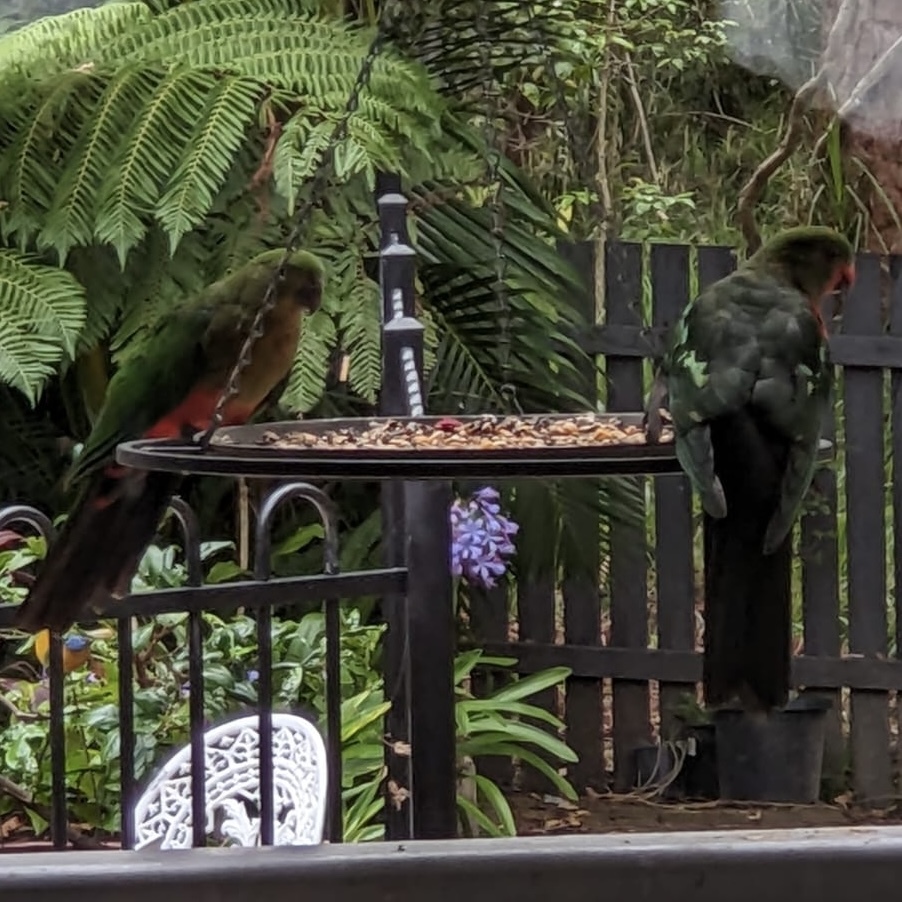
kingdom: Animalia
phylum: Chordata
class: Aves
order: Psittaciformes
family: Psittacidae
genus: Alisterus
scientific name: Alisterus scapularis
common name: Australian king parrot
